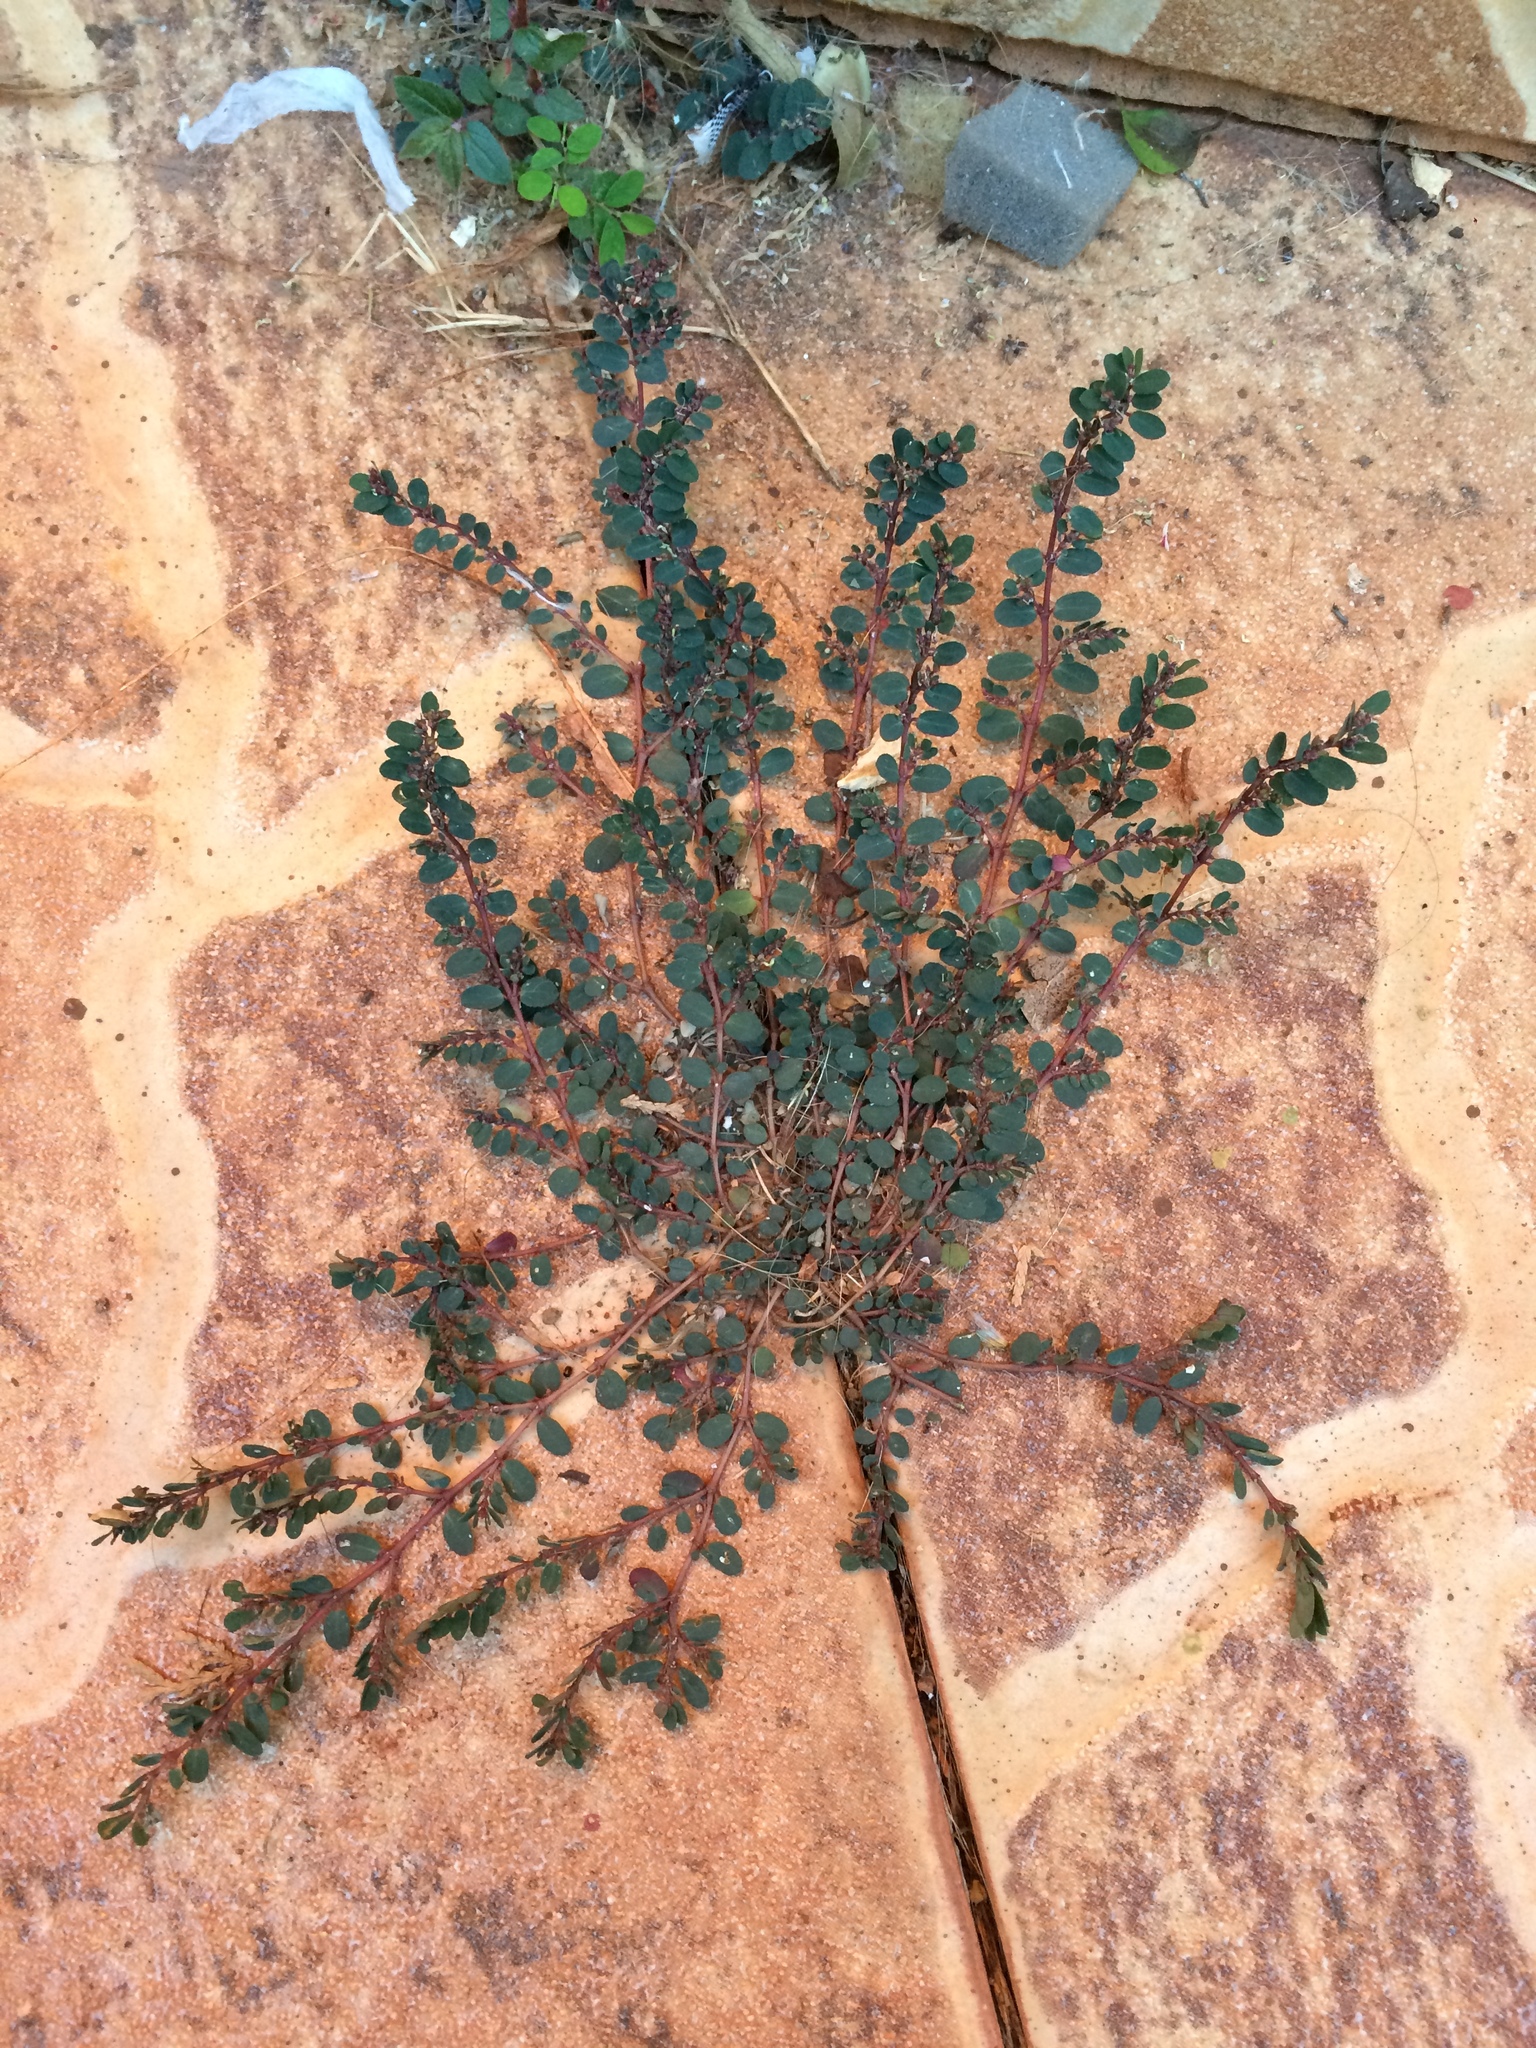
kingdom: Plantae
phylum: Tracheophyta
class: Magnoliopsida
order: Malpighiales
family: Euphorbiaceae
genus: Euphorbia
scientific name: Euphorbia prostrata
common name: Prostrate sandmat
